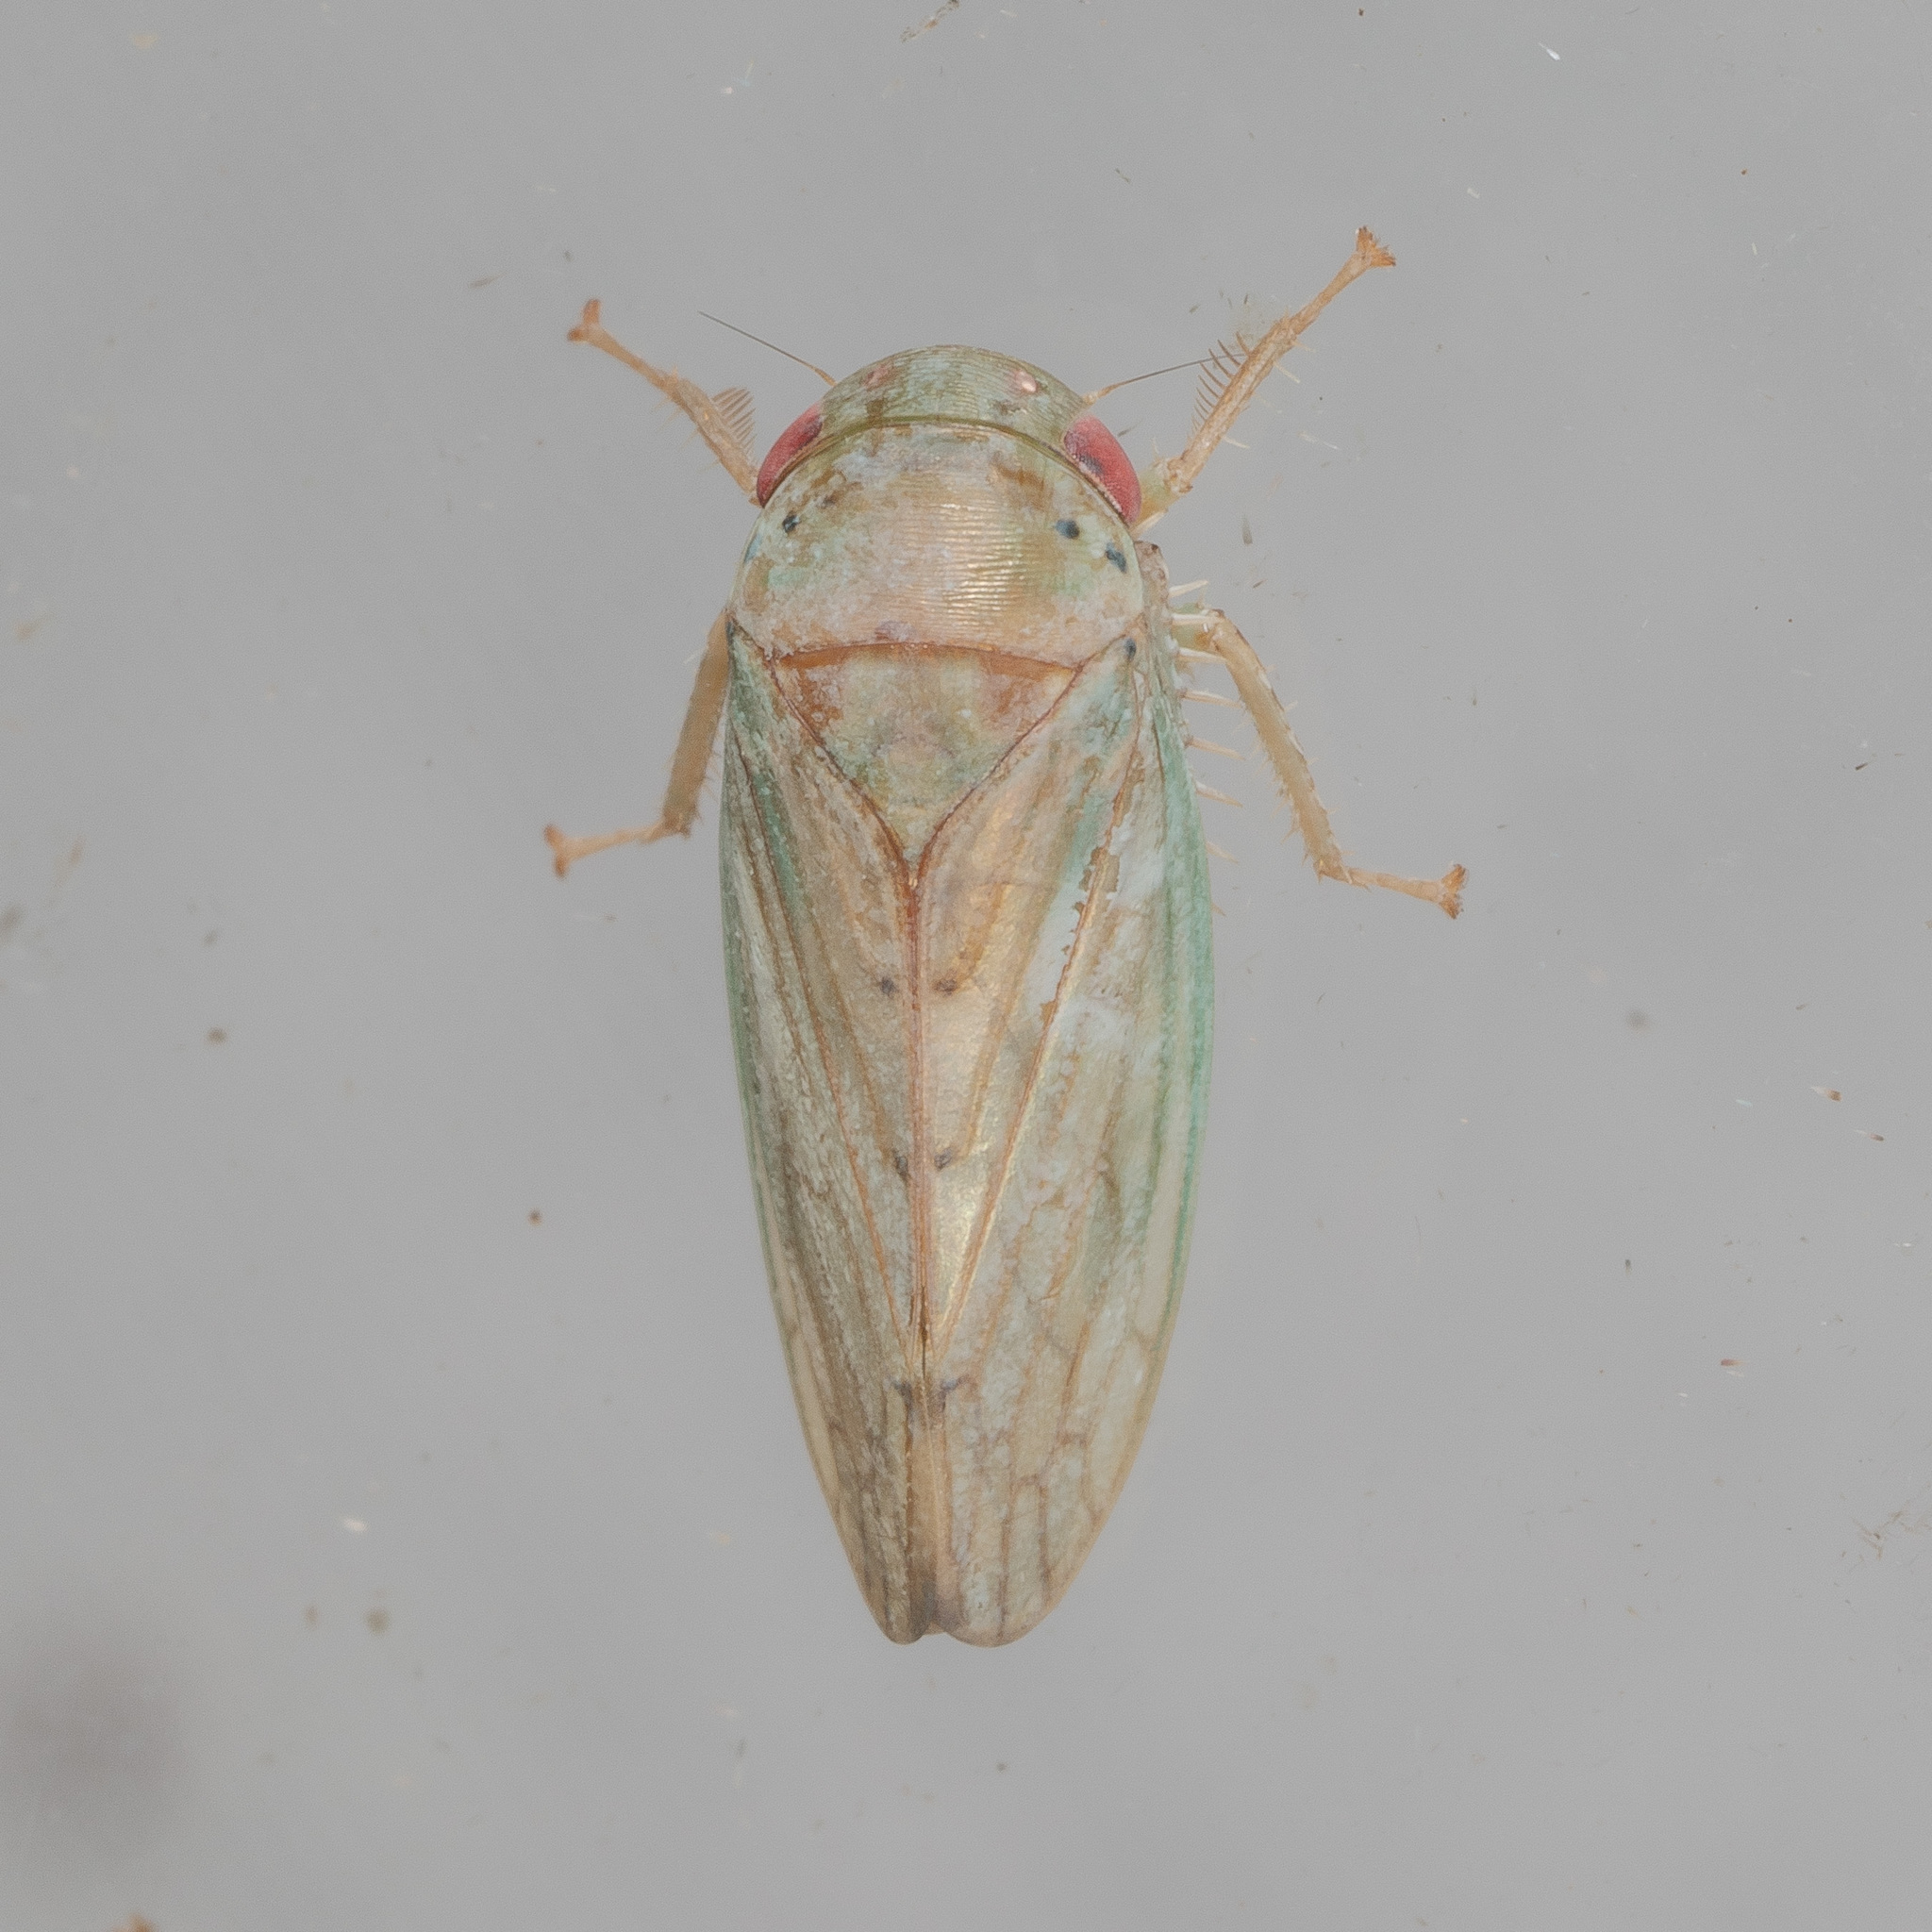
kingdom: Animalia
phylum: Arthropoda
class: Insecta
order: Hemiptera
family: Cicadellidae
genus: Polana
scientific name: Polana quadrinotata
